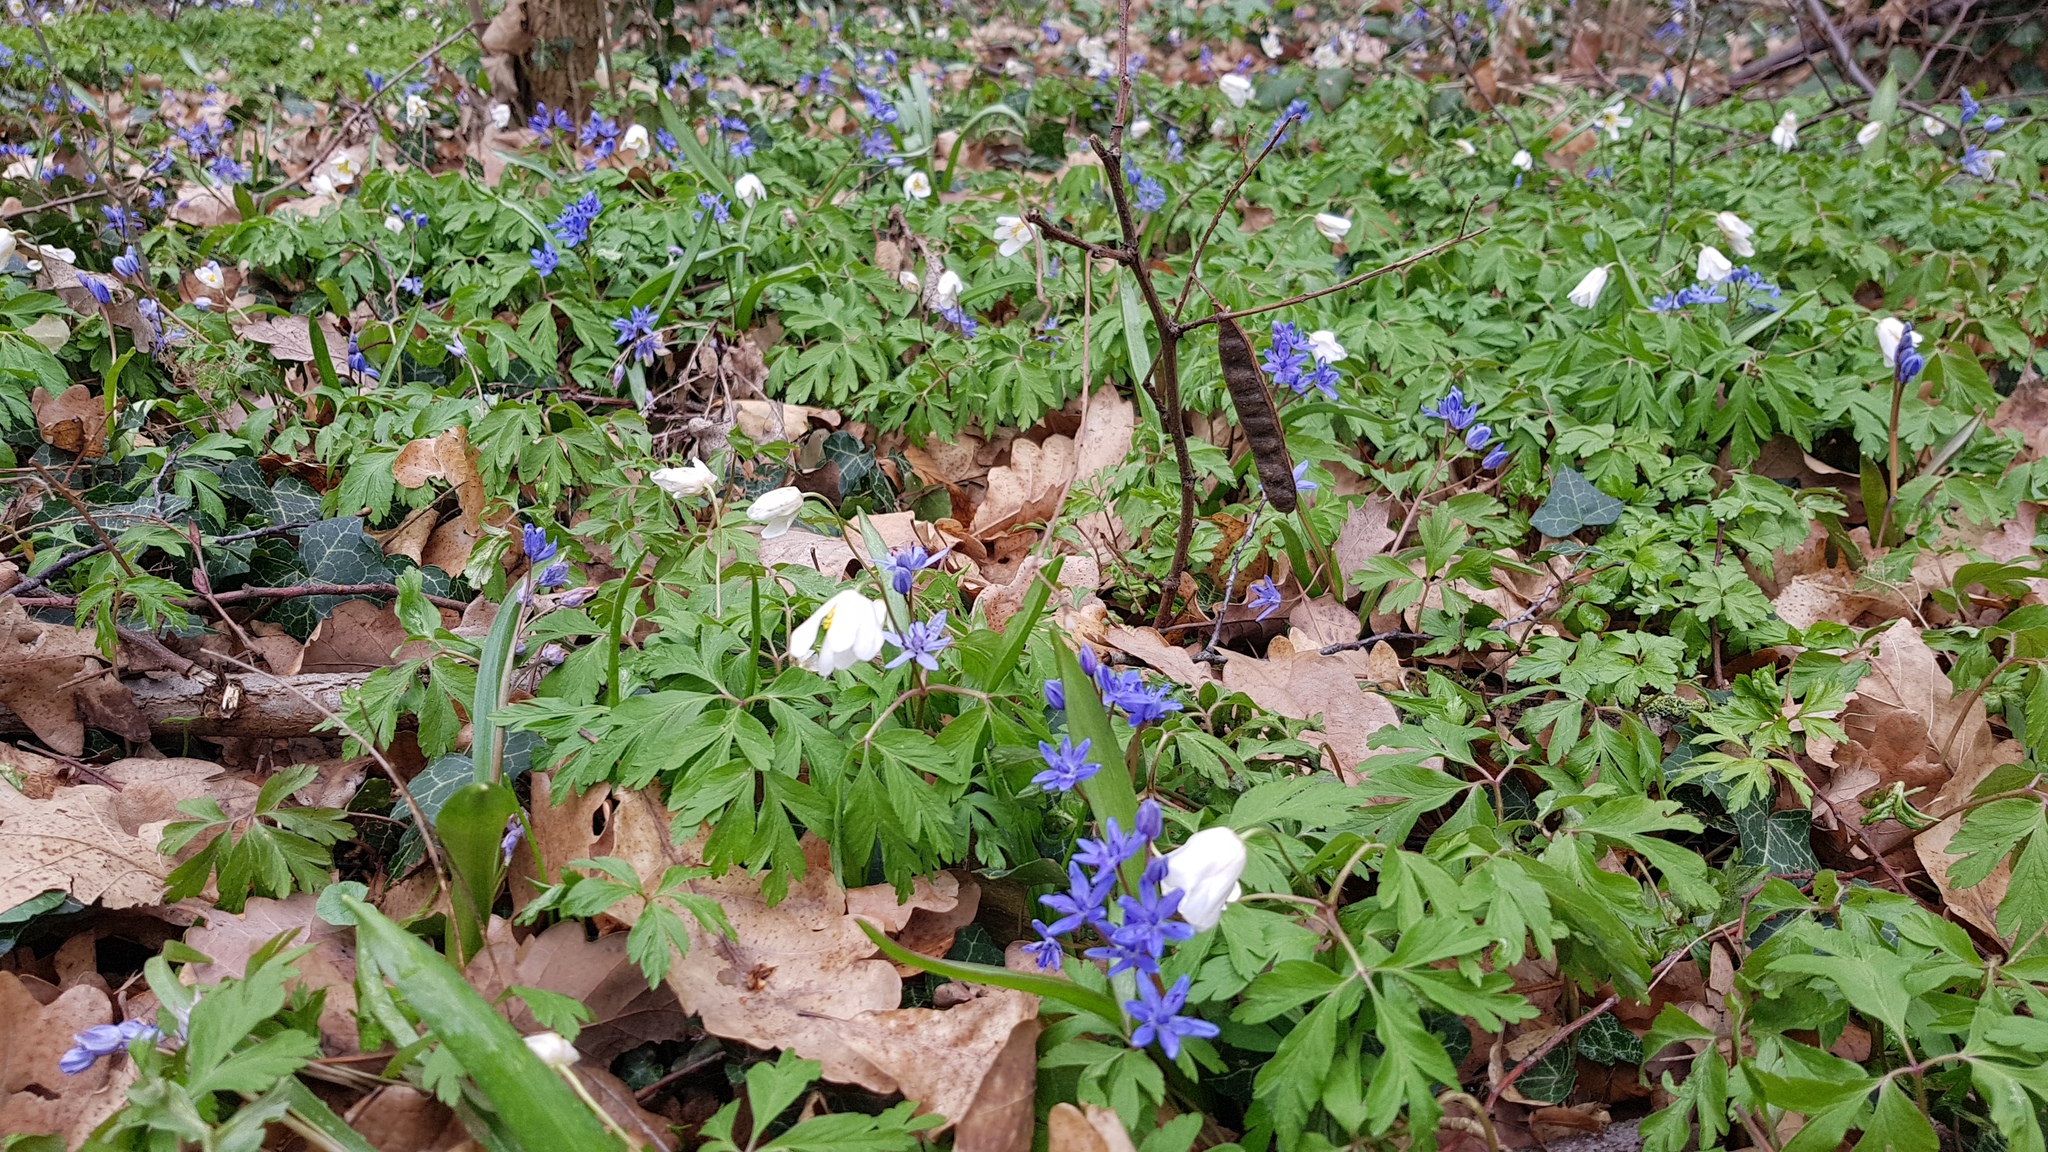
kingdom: Plantae
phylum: Tracheophyta
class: Liliopsida
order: Asparagales
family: Asparagaceae
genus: Scilla
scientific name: Scilla bifolia
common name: Alpine squill
